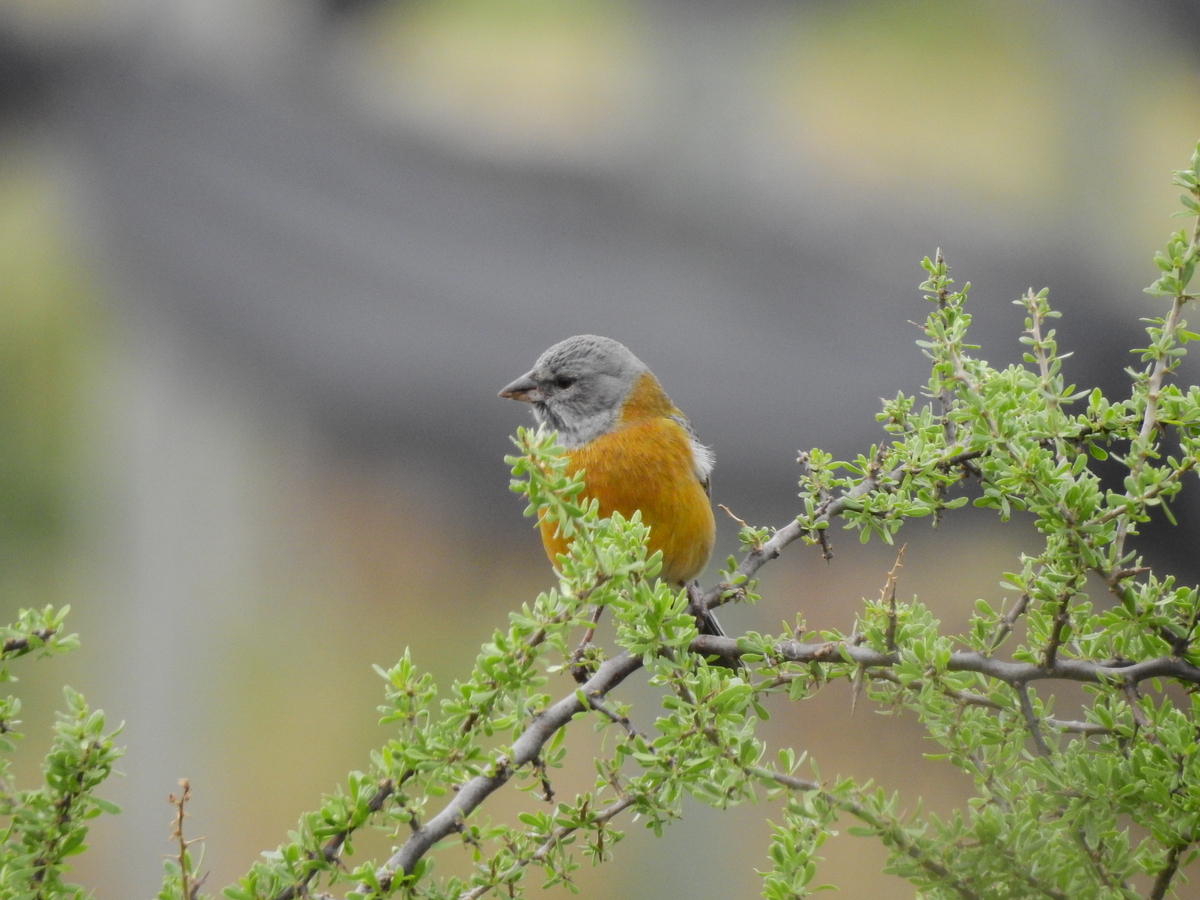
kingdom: Animalia
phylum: Chordata
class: Aves
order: Passeriformes
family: Thraupidae
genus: Phrygilus
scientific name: Phrygilus gayi
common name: Grey-hooded sierra finch
